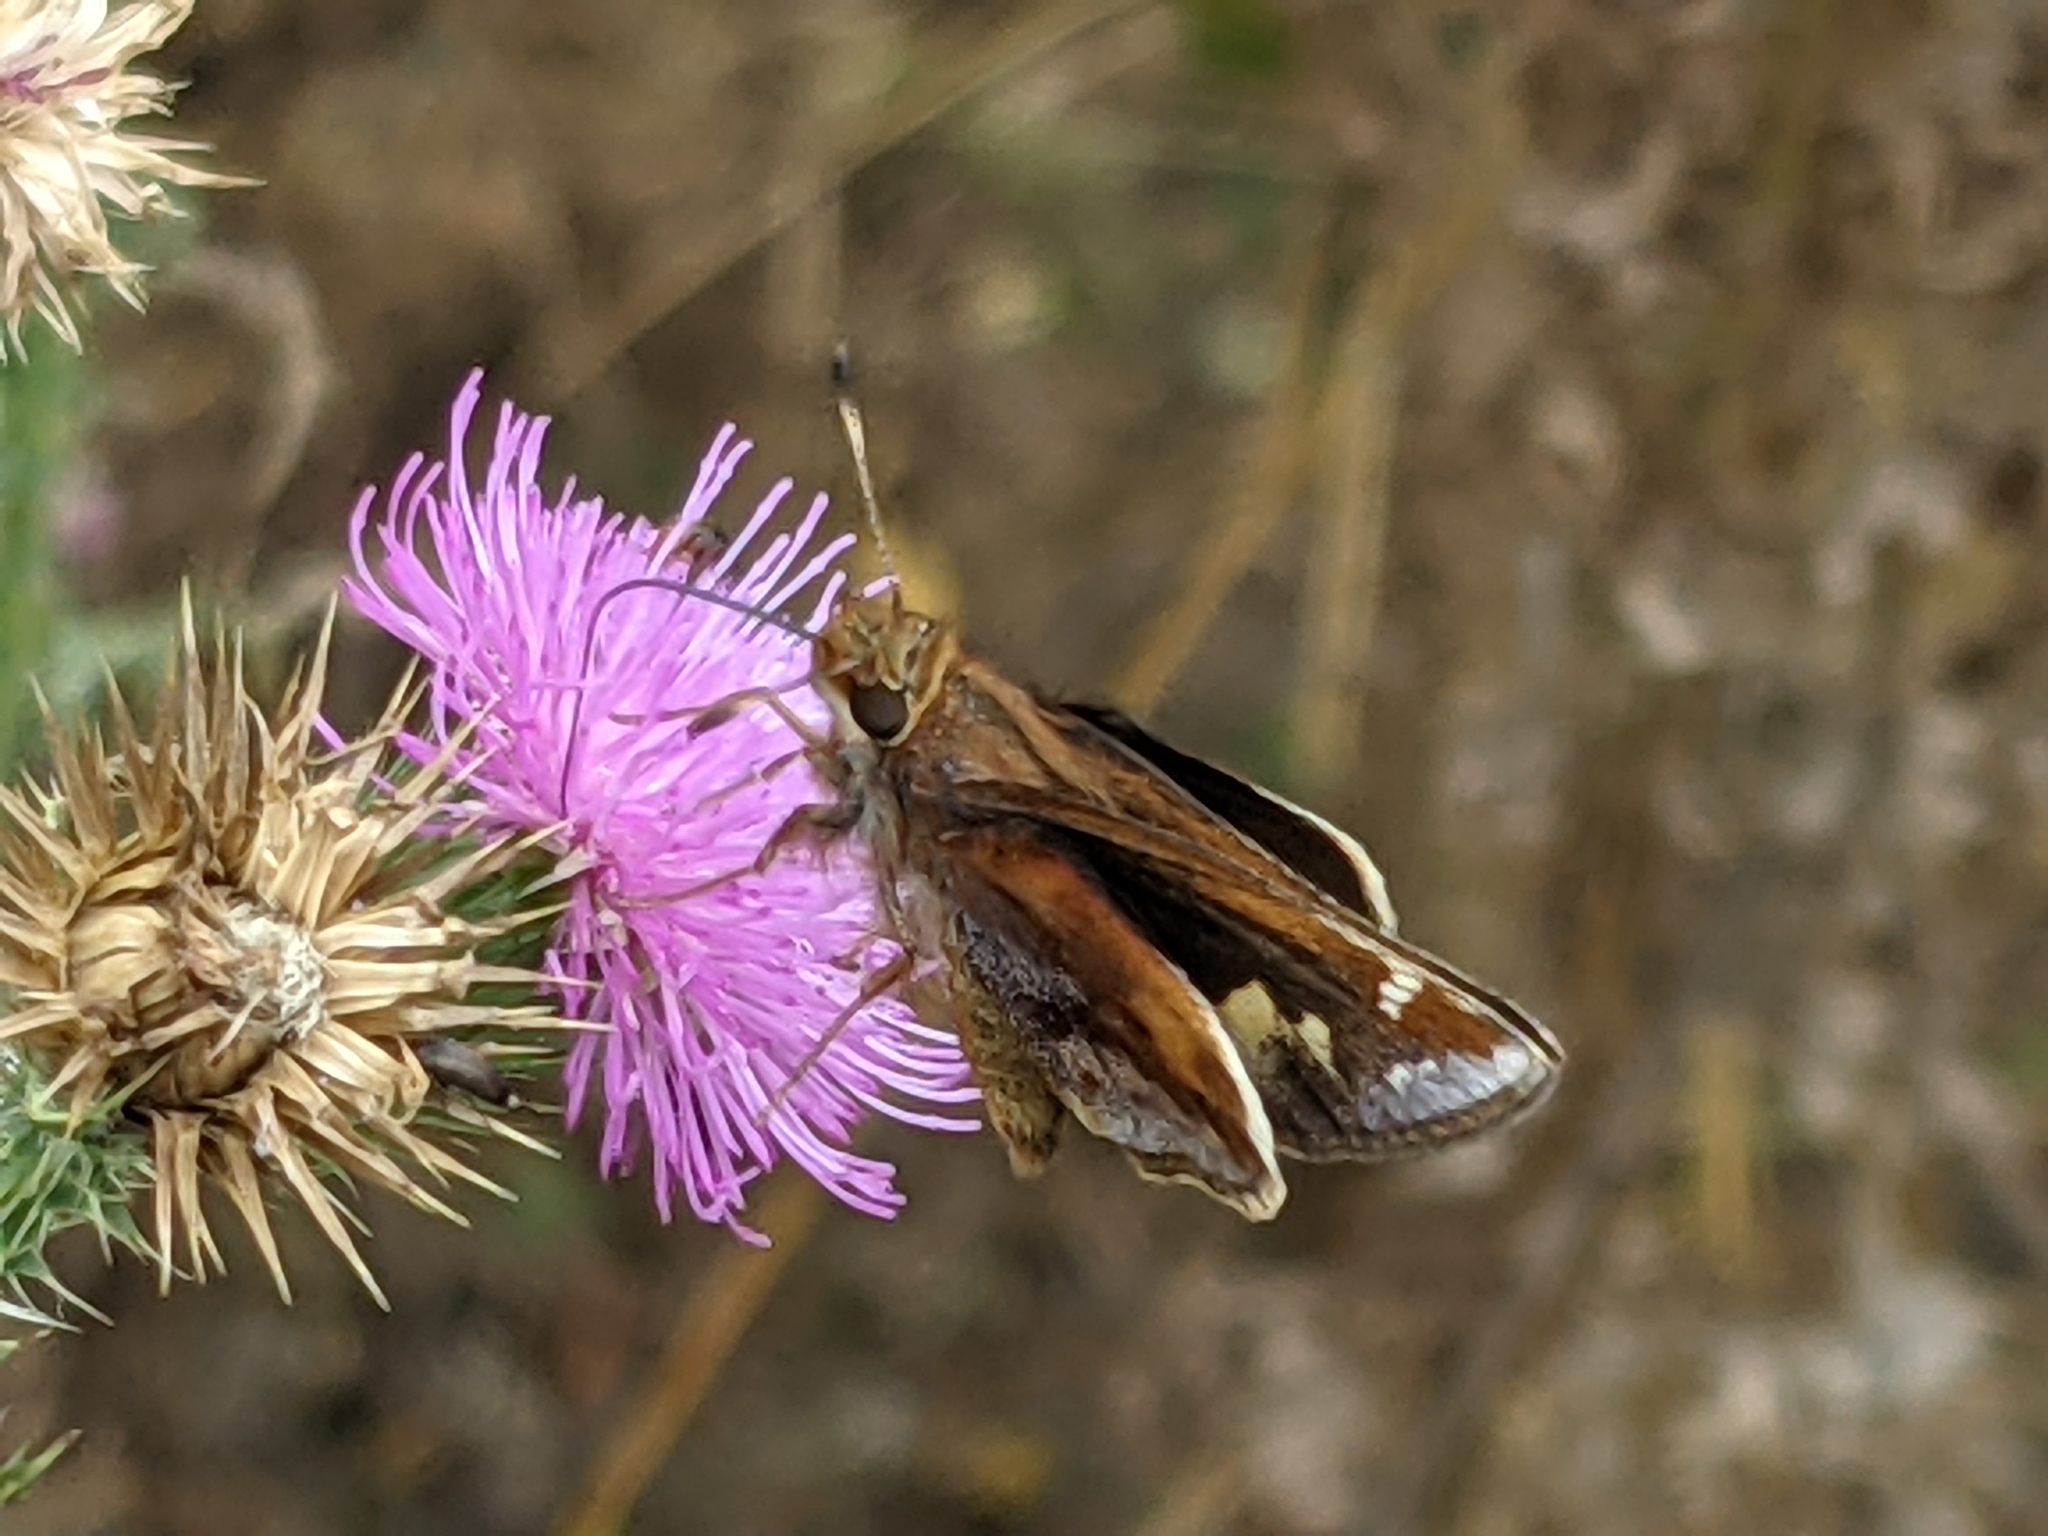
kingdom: Animalia
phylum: Arthropoda
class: Insecta
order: Lepidoptera
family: Hesperiidae
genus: Lon
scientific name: Lon zabulon
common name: Zabulon skipper
